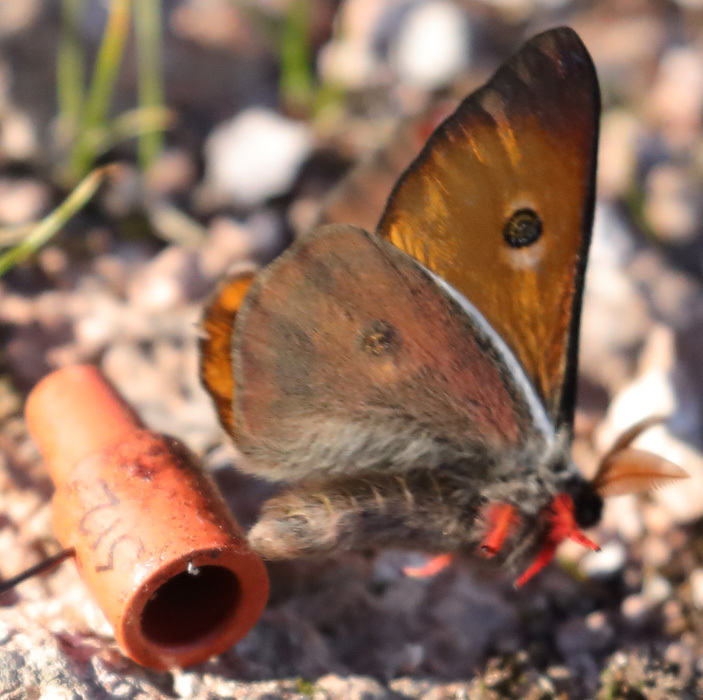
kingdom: Animalia
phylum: Arthropoda
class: Insecta
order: Lepidoptera
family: Saturniidae
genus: Saturnia
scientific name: Saturnia mendocino
